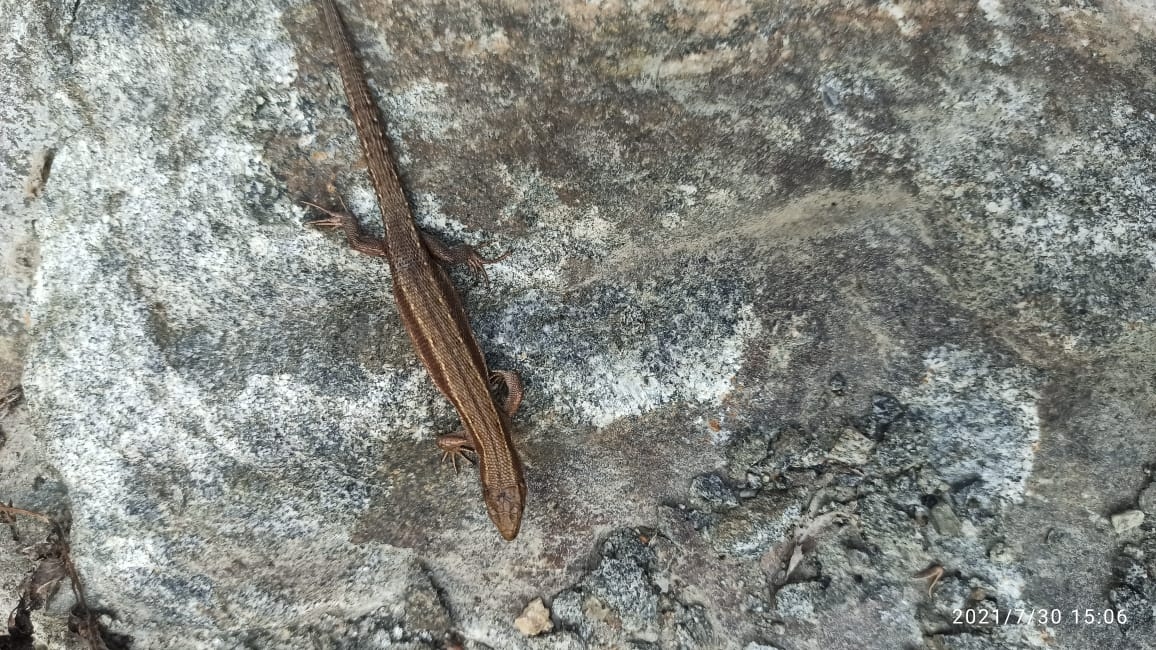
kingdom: Animalia
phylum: Chordata
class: Squamata
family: Lacertidae
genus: Zootoca
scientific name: Zootoca vivipara
